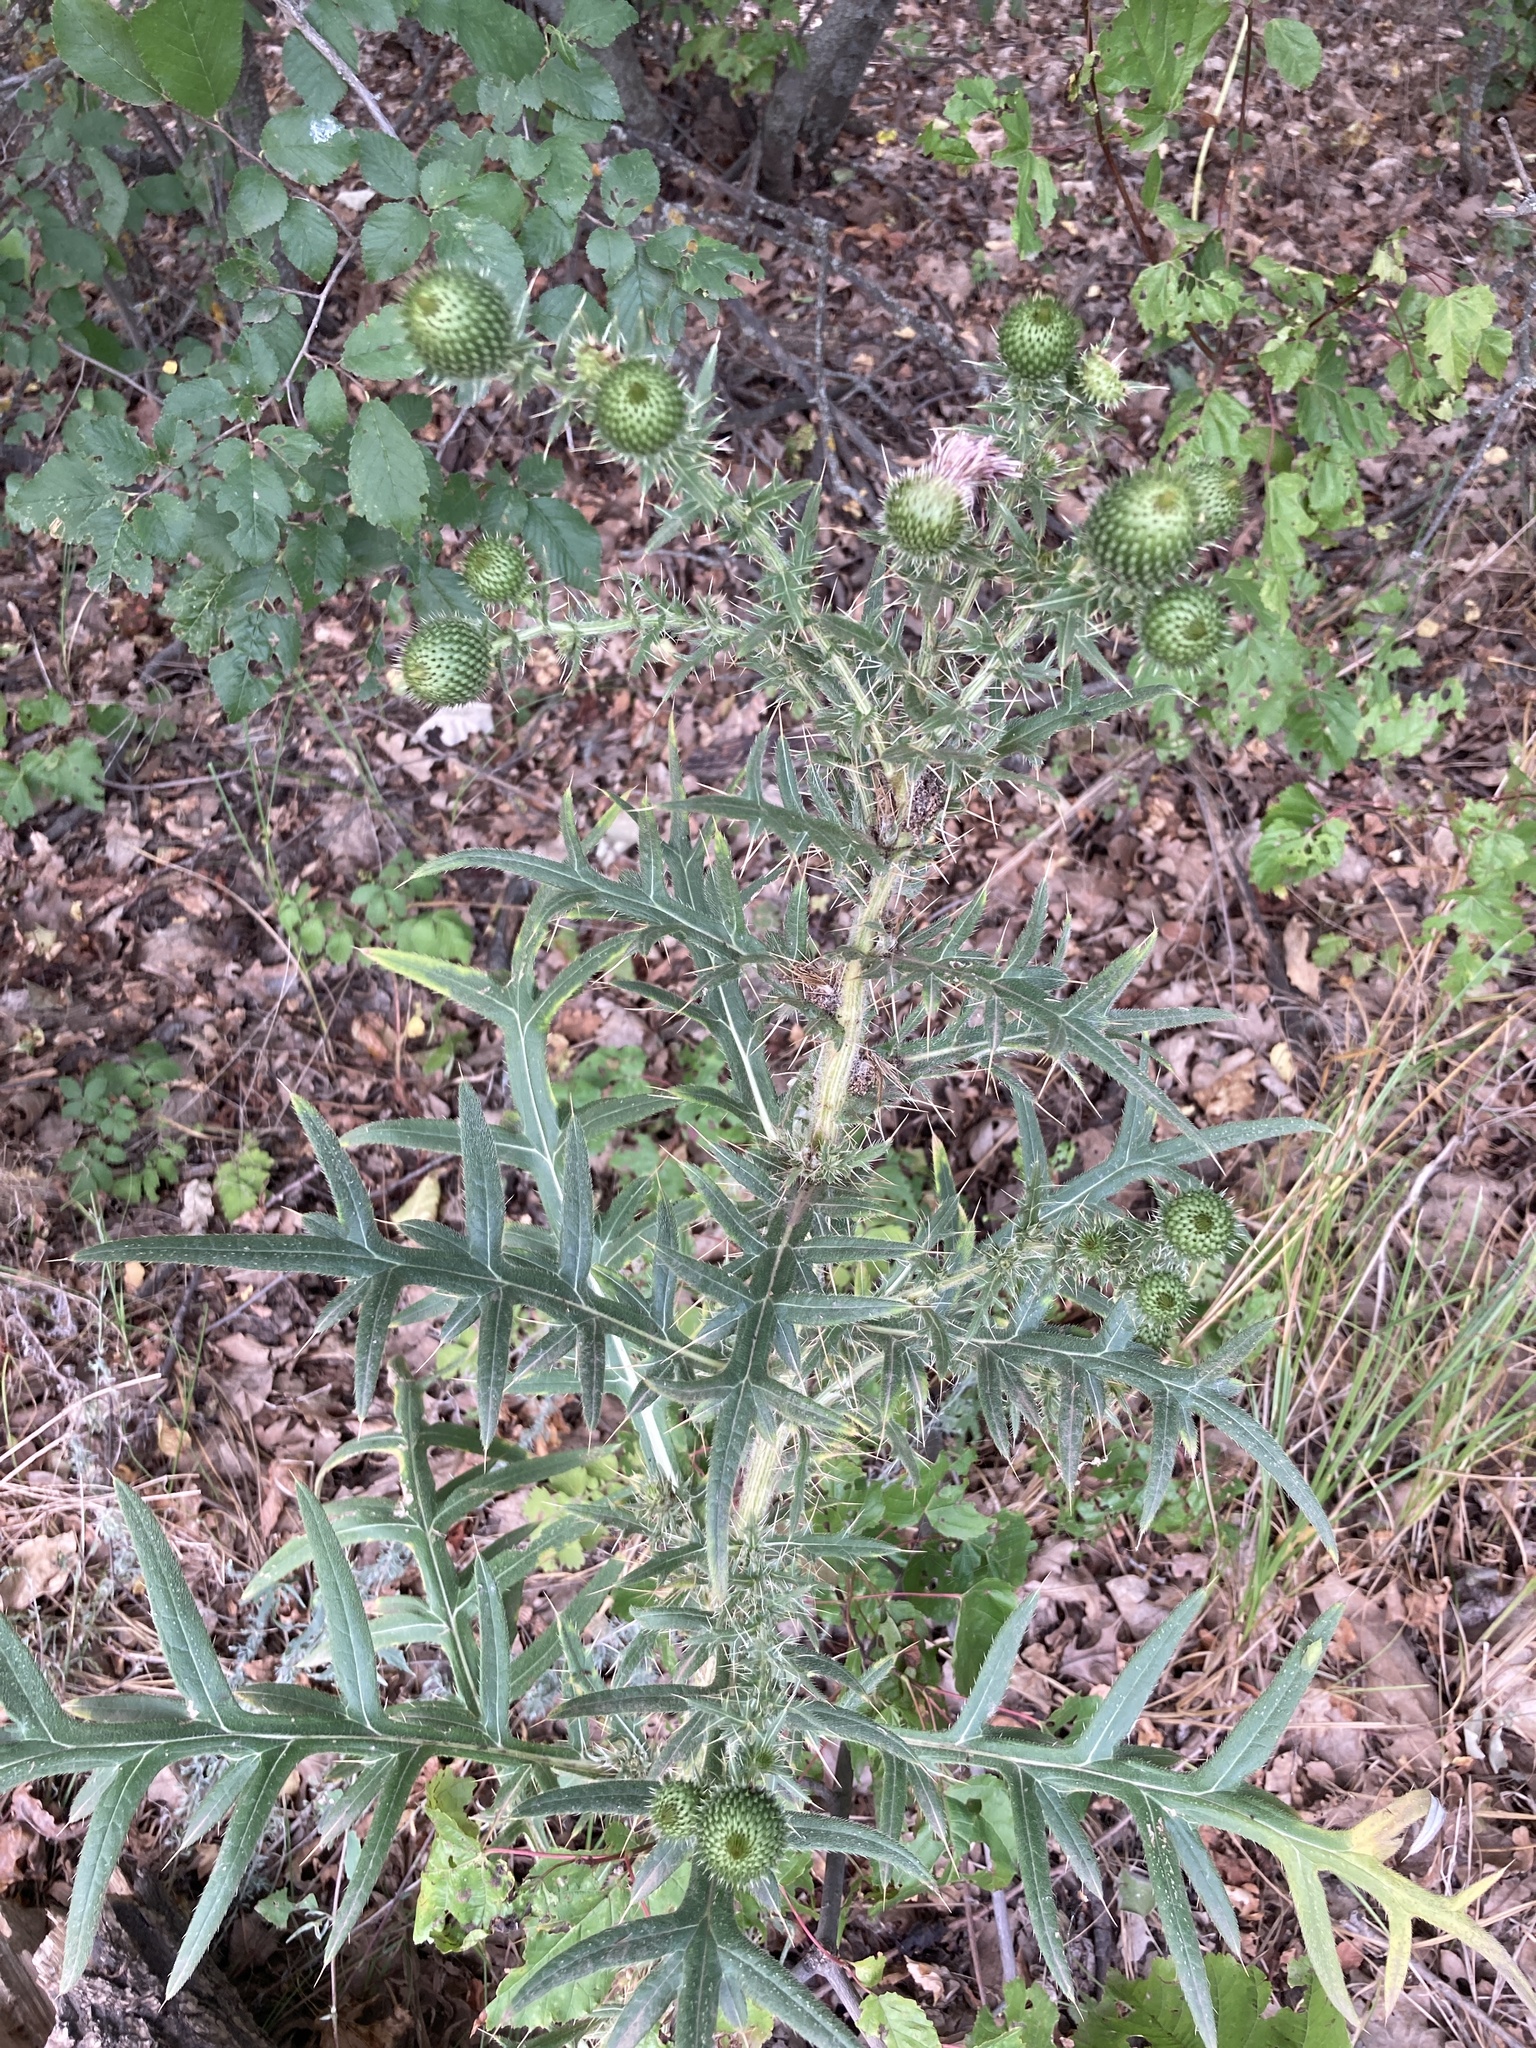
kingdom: Plantae
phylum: Tracheophyta
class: Magnoliopsida
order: Asterales
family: Asteraceae
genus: Cirsium
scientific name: Cirsium serrulatum
